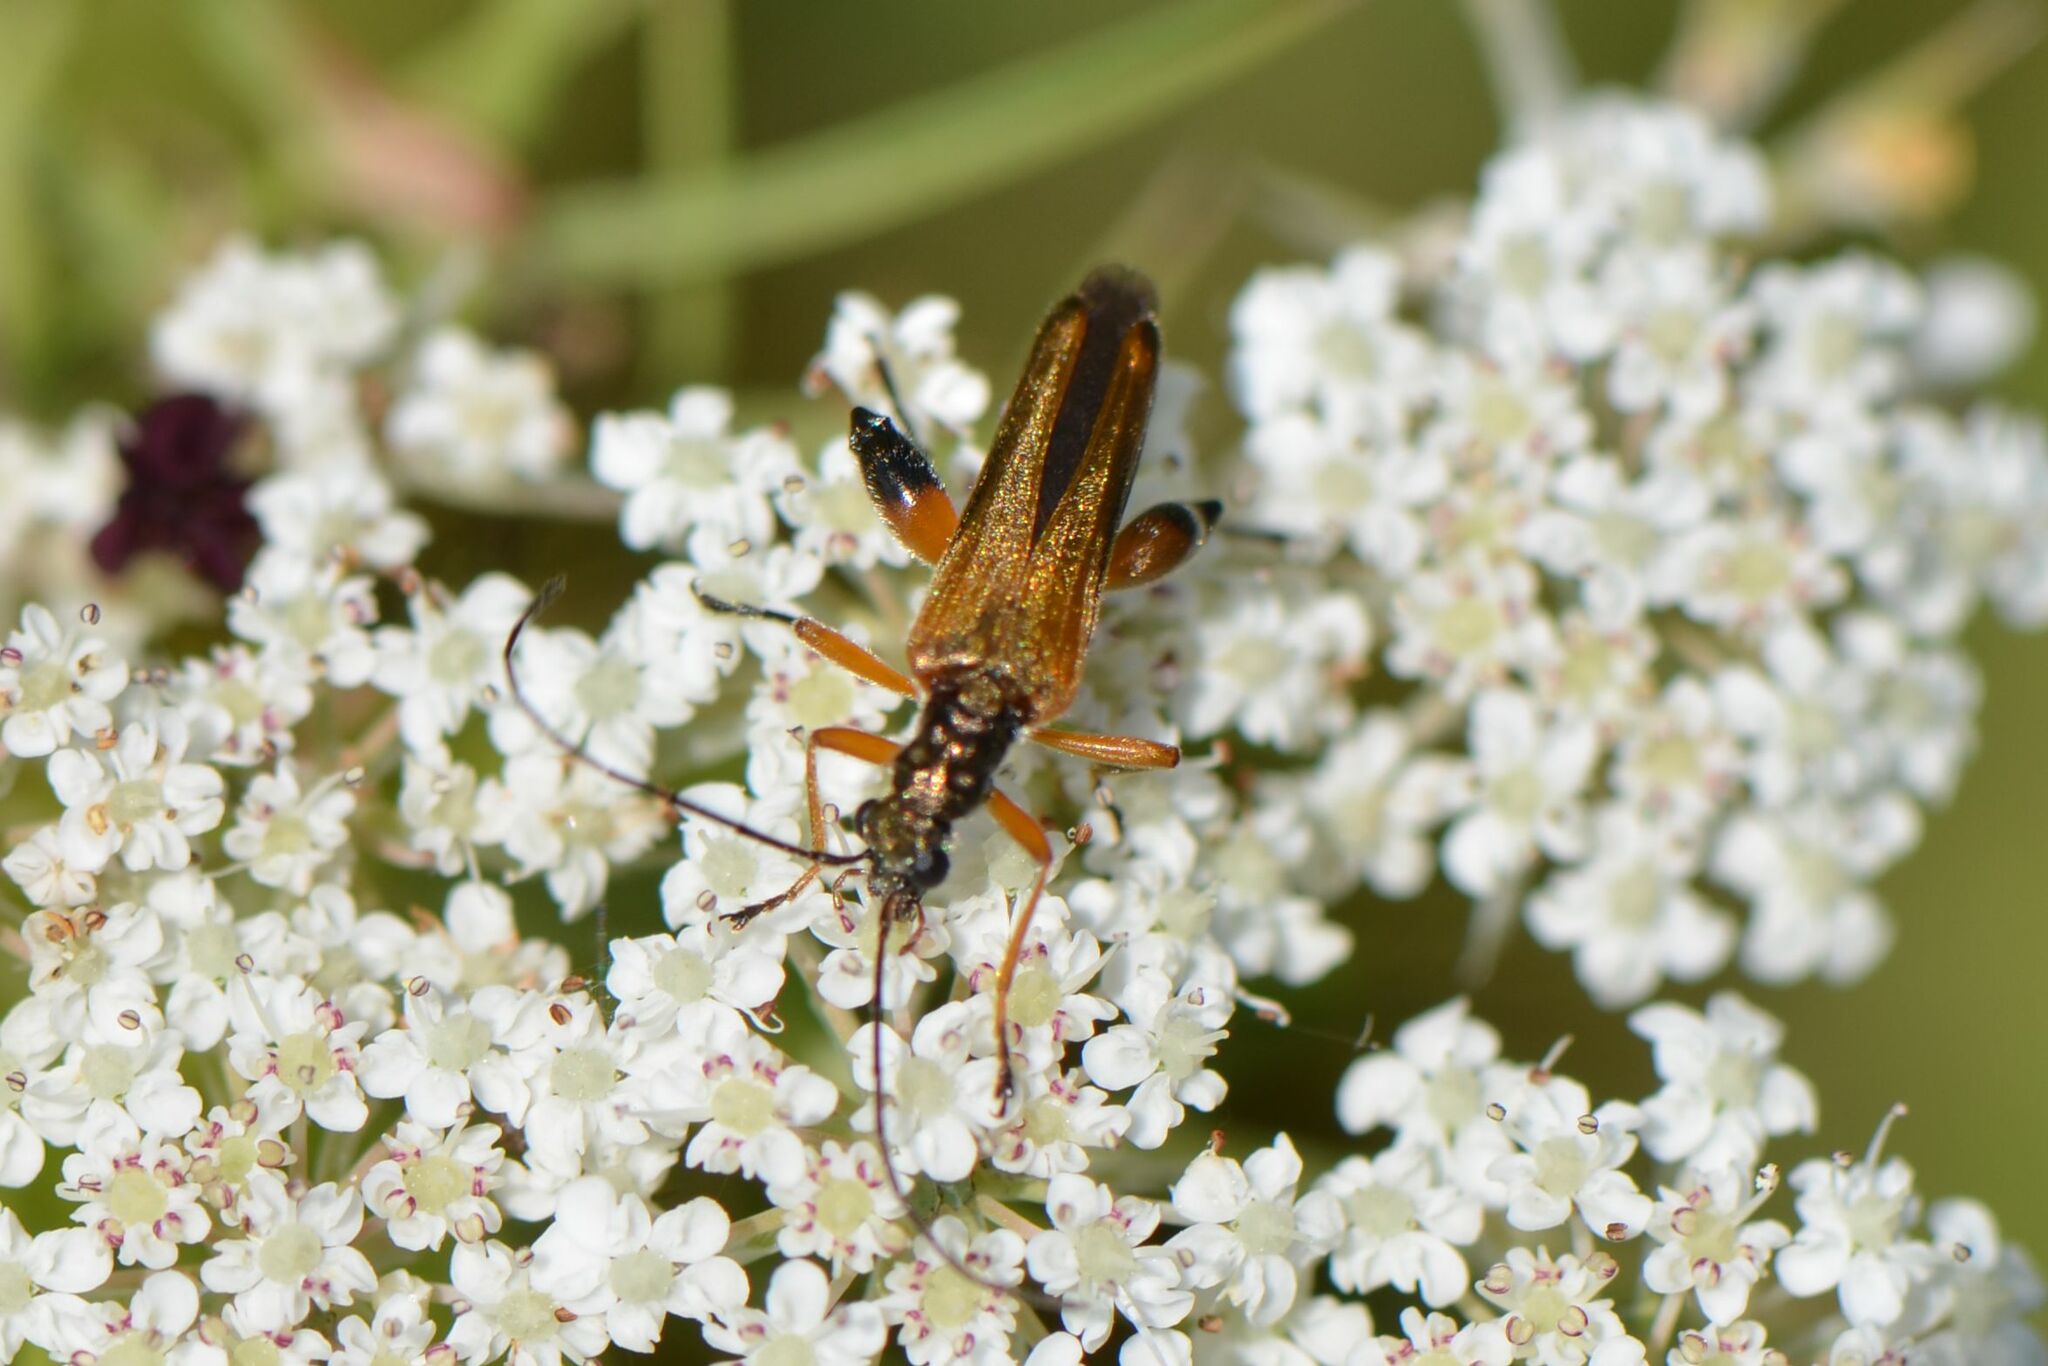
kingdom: Animalia
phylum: Arthropoda
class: Insecta
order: Coleoptera
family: Oedemeridae
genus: Oedemera
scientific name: Oedemera podagrariae
